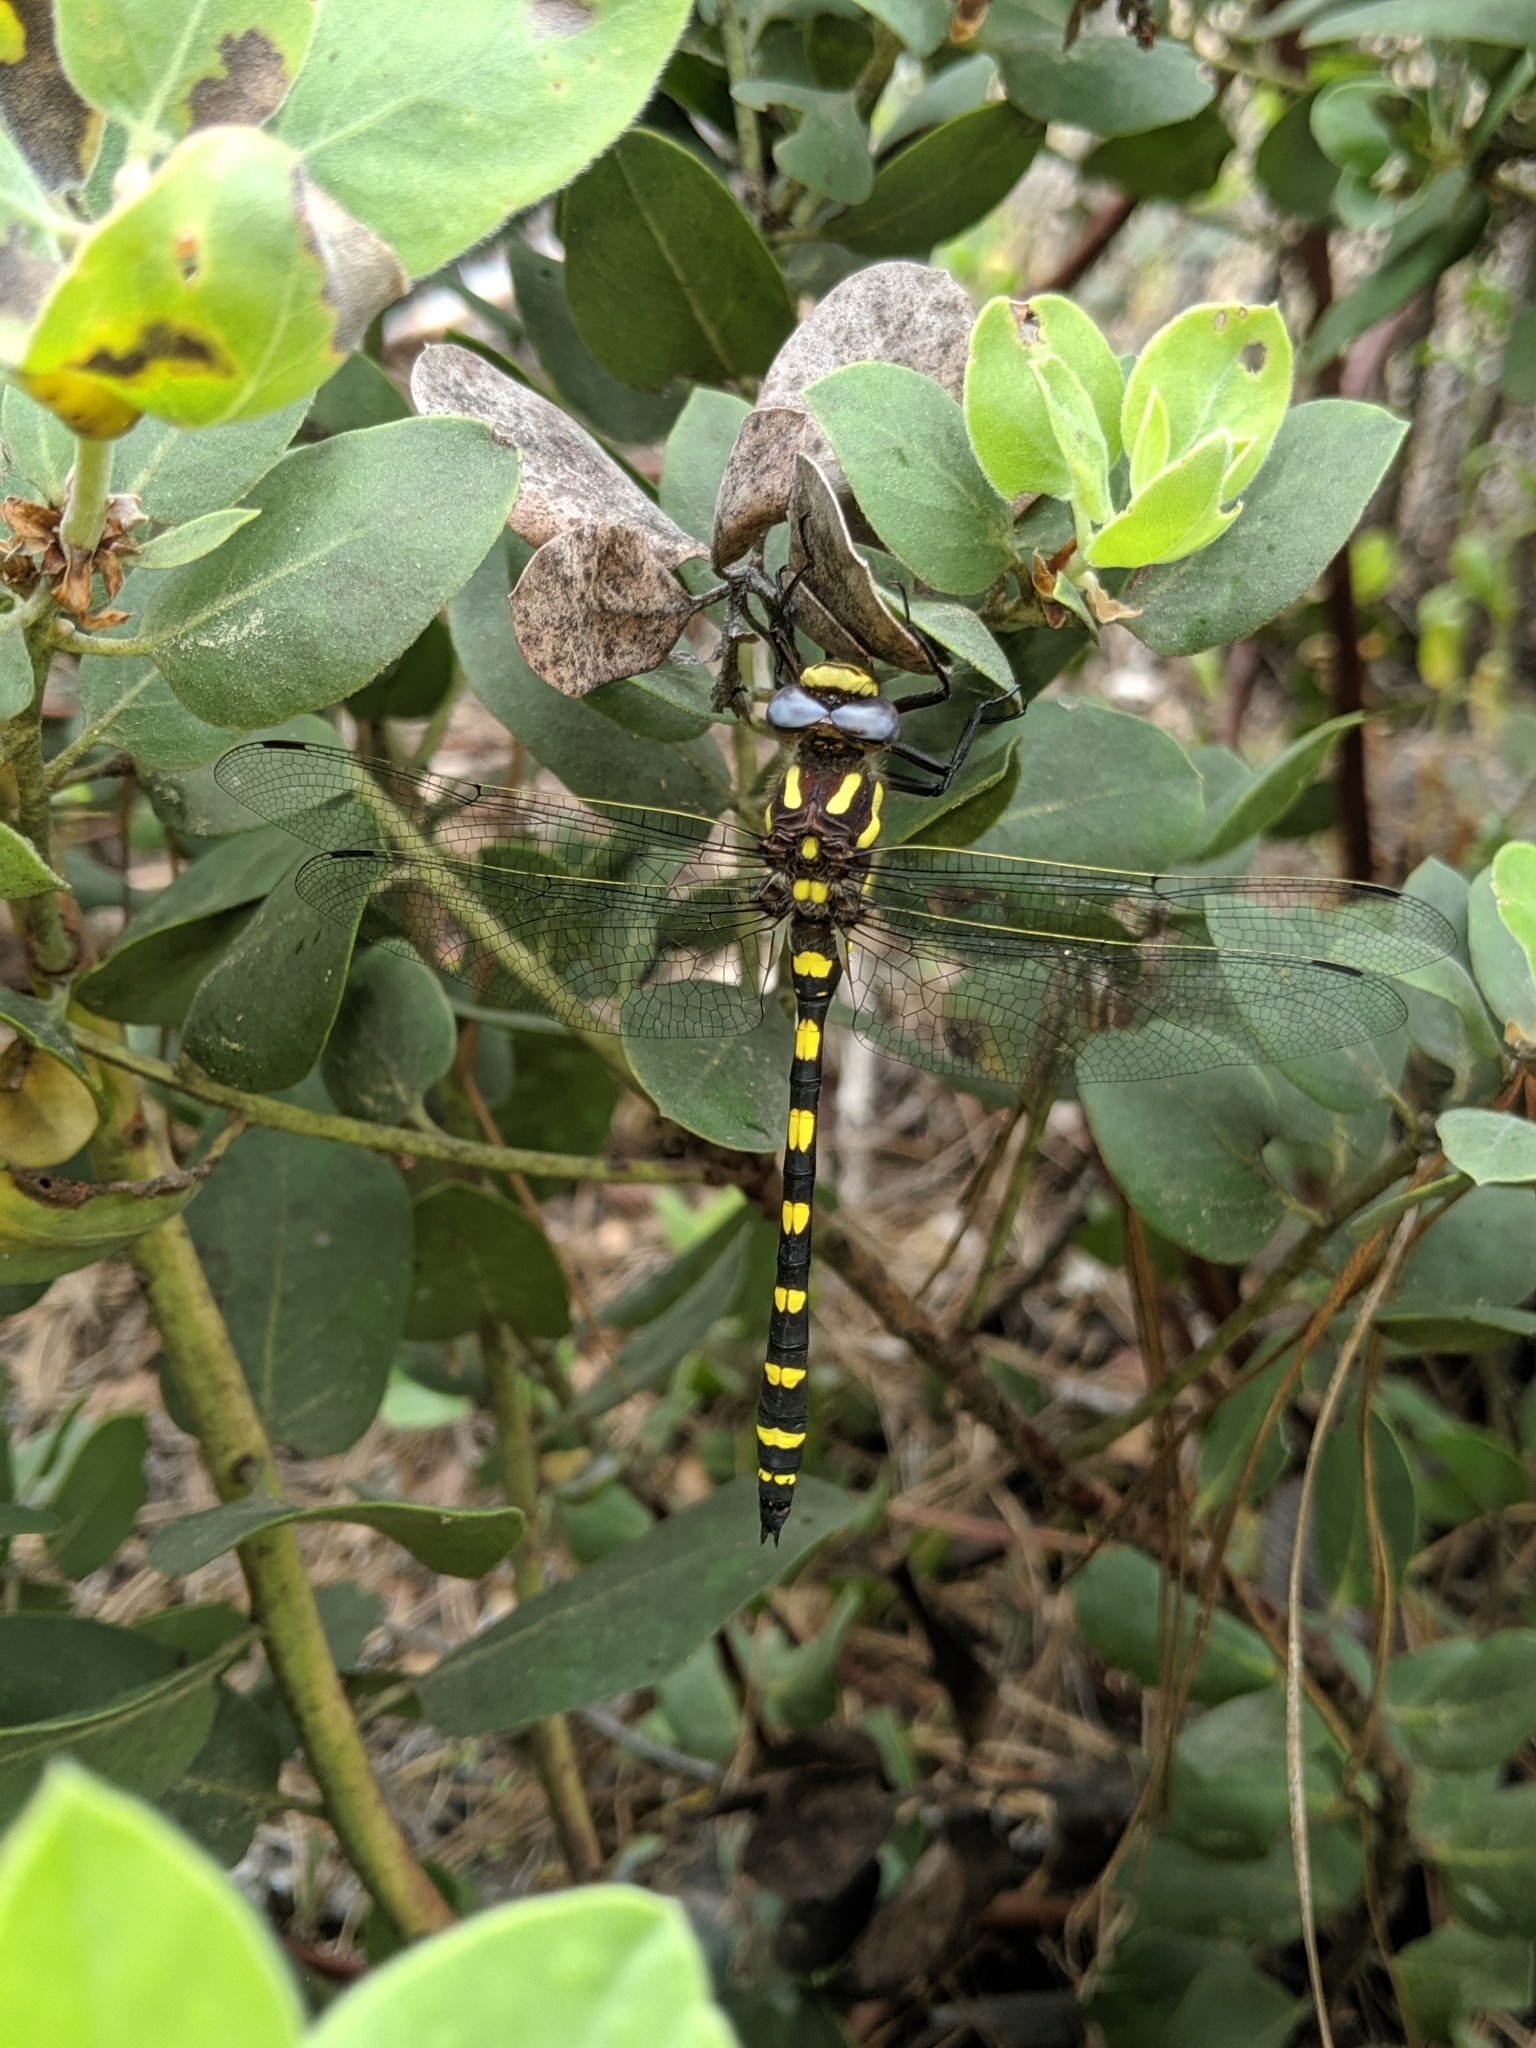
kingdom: Animalia
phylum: Arthropoda
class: Insecta
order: Odonata
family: Cordulegastridae
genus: Cordulegaster
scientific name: Cordulegaster dorsalis
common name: Pacific spiketail
